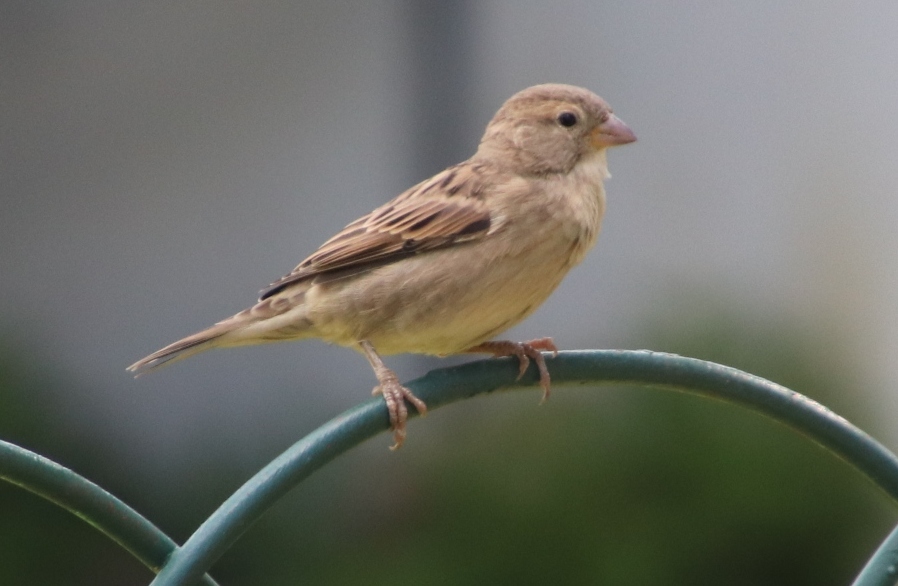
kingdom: Animalia
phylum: Chordata
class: Aves
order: Passeriformes
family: Passeridae
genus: Passer
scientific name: Passer domesticus
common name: House sparrow
